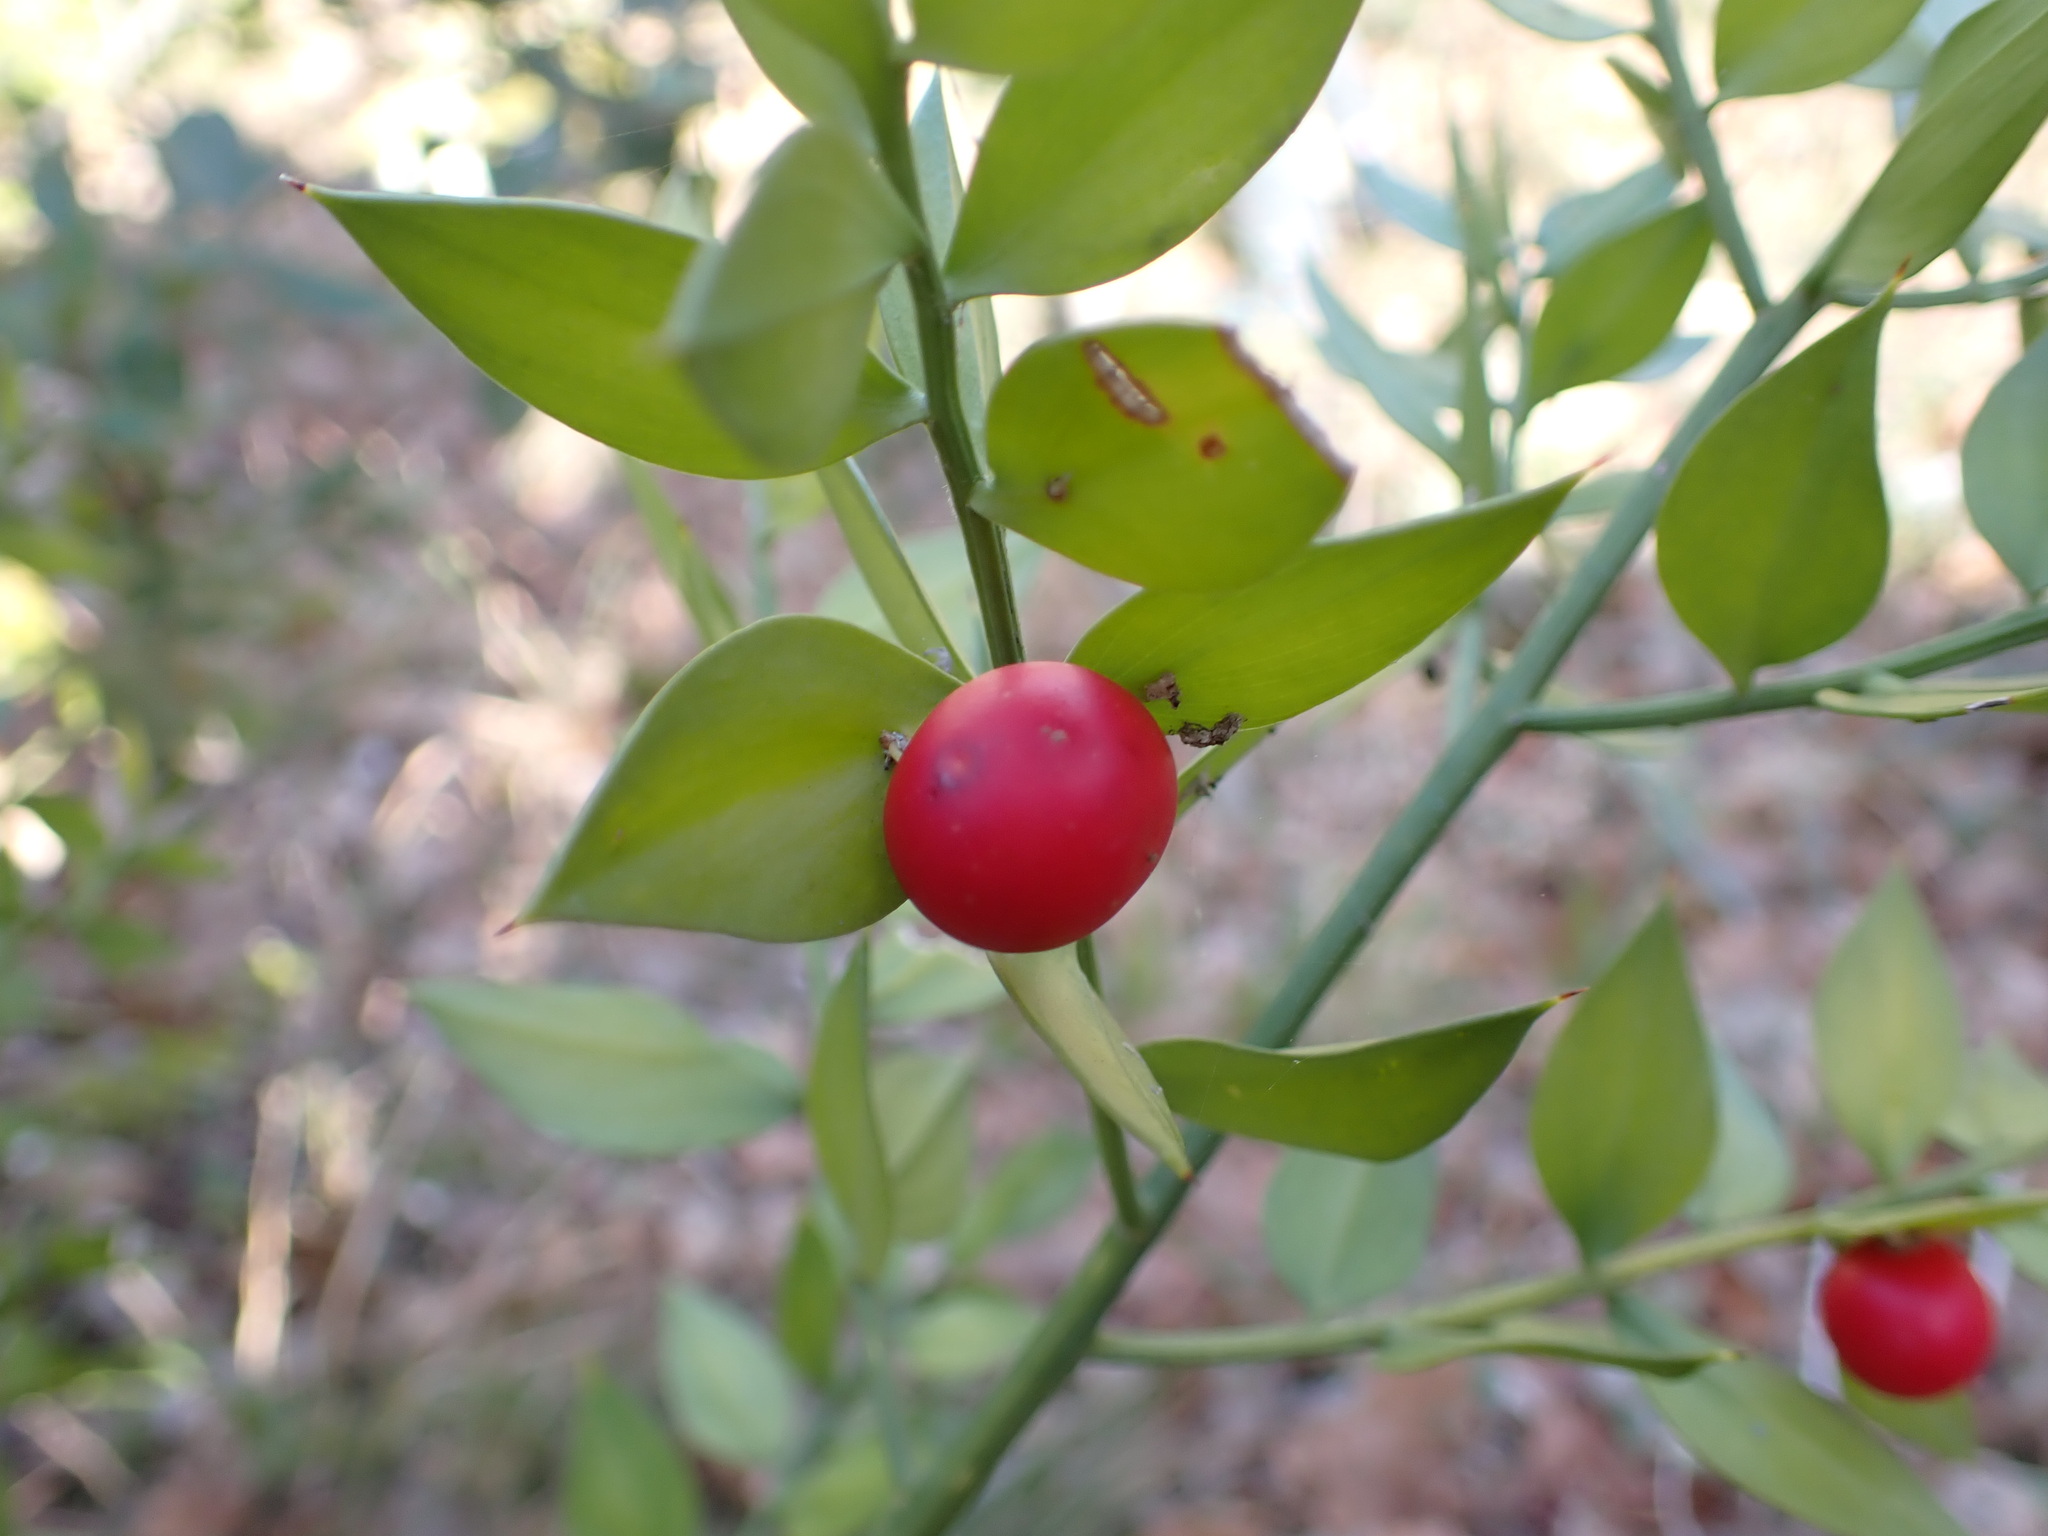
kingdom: Plantae
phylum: Tracheophyta
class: Liliopsida
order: Asparagales
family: Asparagaceae
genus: Ruscus
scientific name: Ruscus aculeatus
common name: Butcher's-broom
